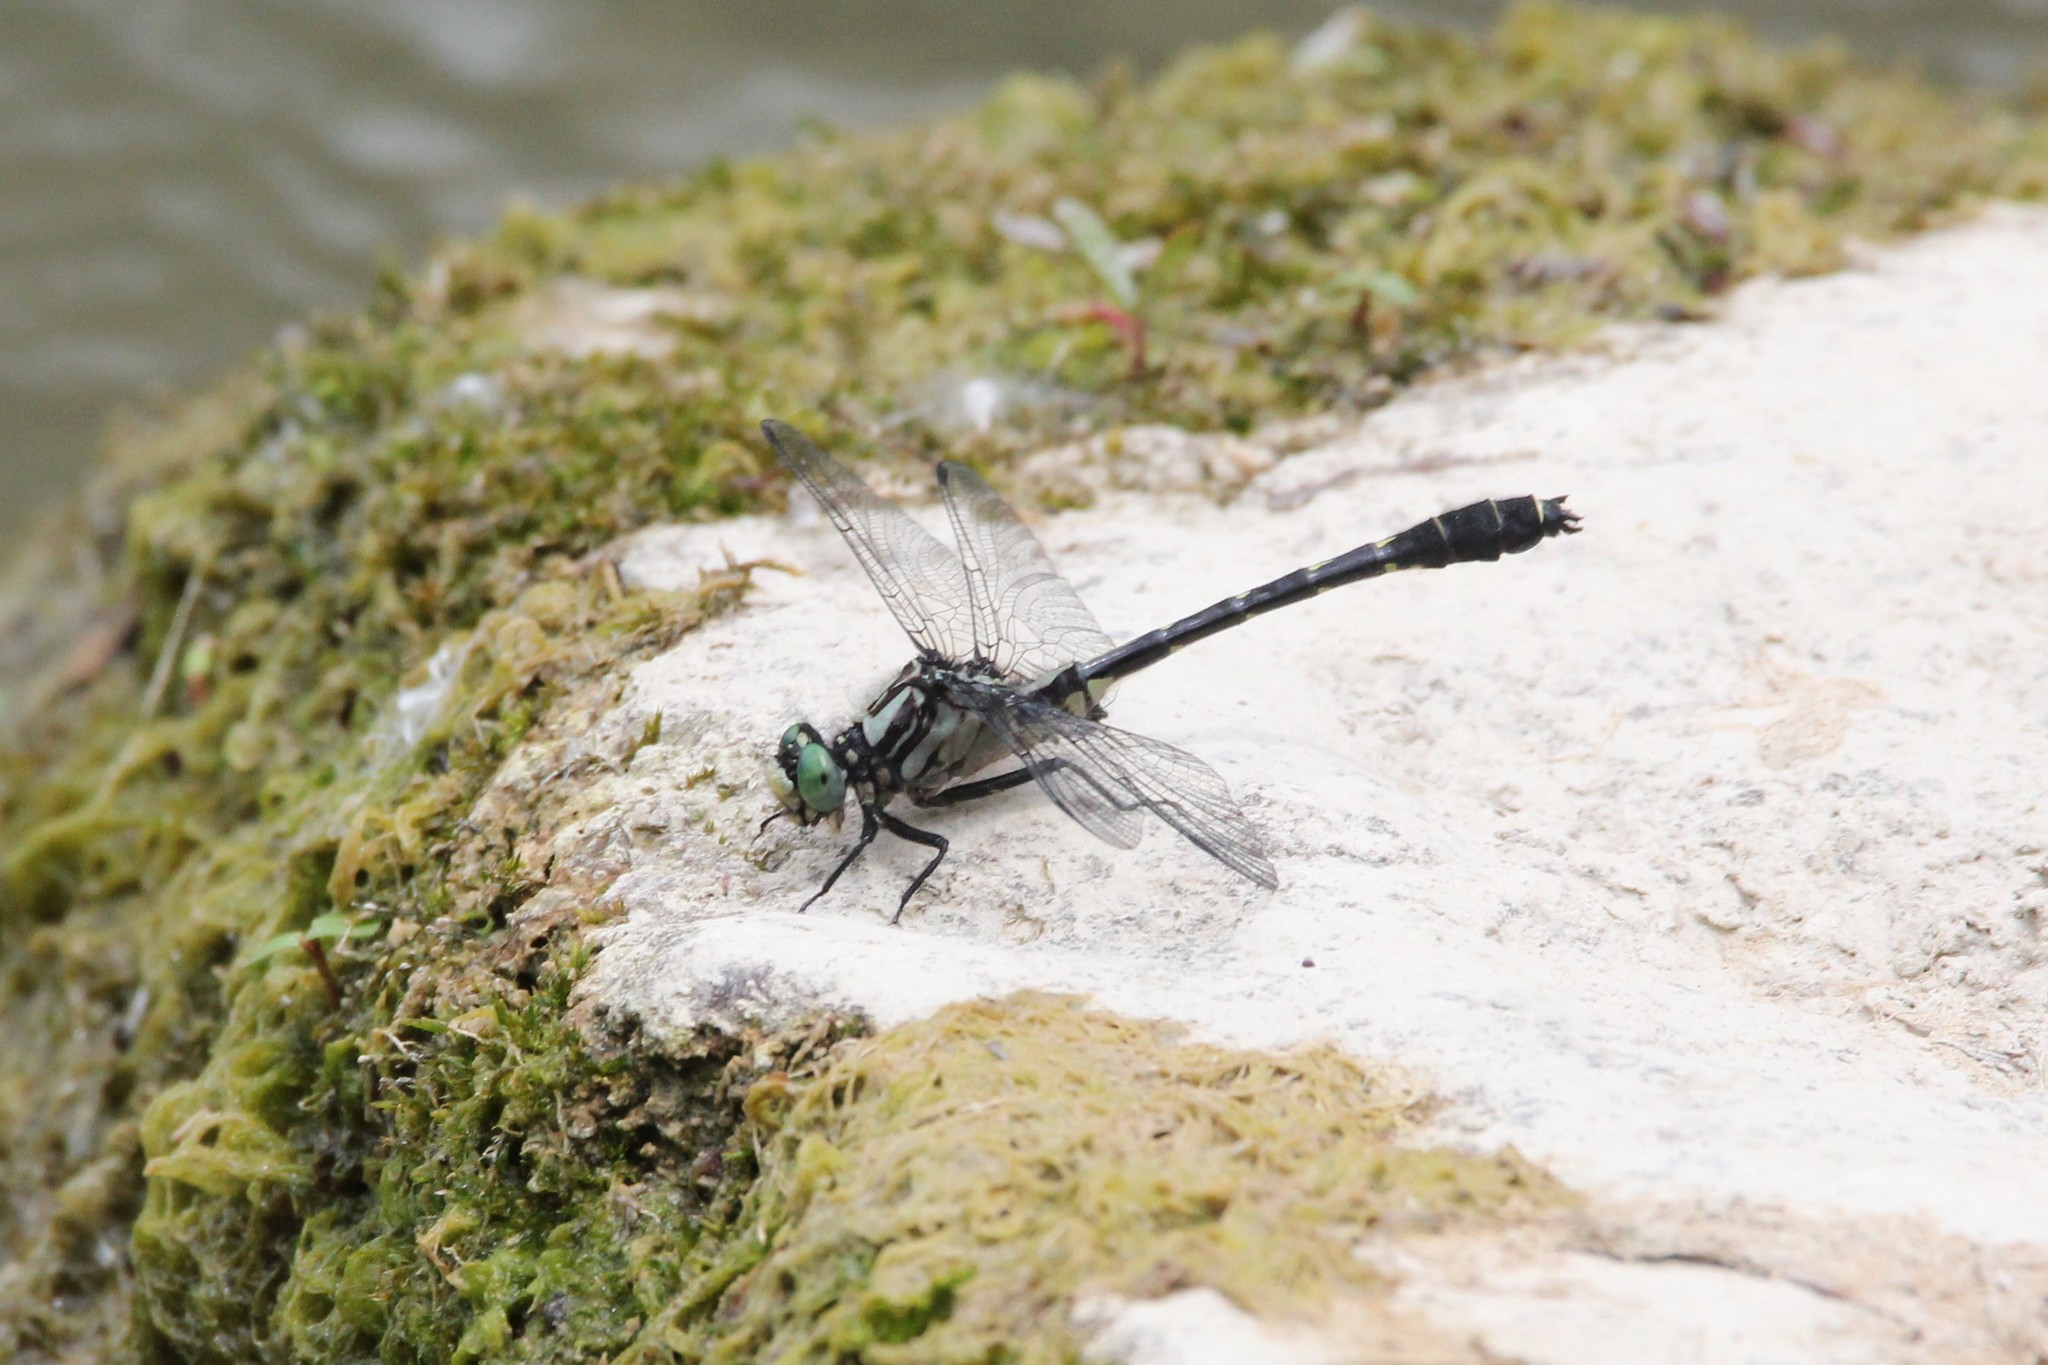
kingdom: Animalia
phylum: Arthropoda
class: Insecta
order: Odonata
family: Gomphidae
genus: Hylogomphus
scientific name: Hylogomphus viridifrons
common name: Green-faced clubtail
